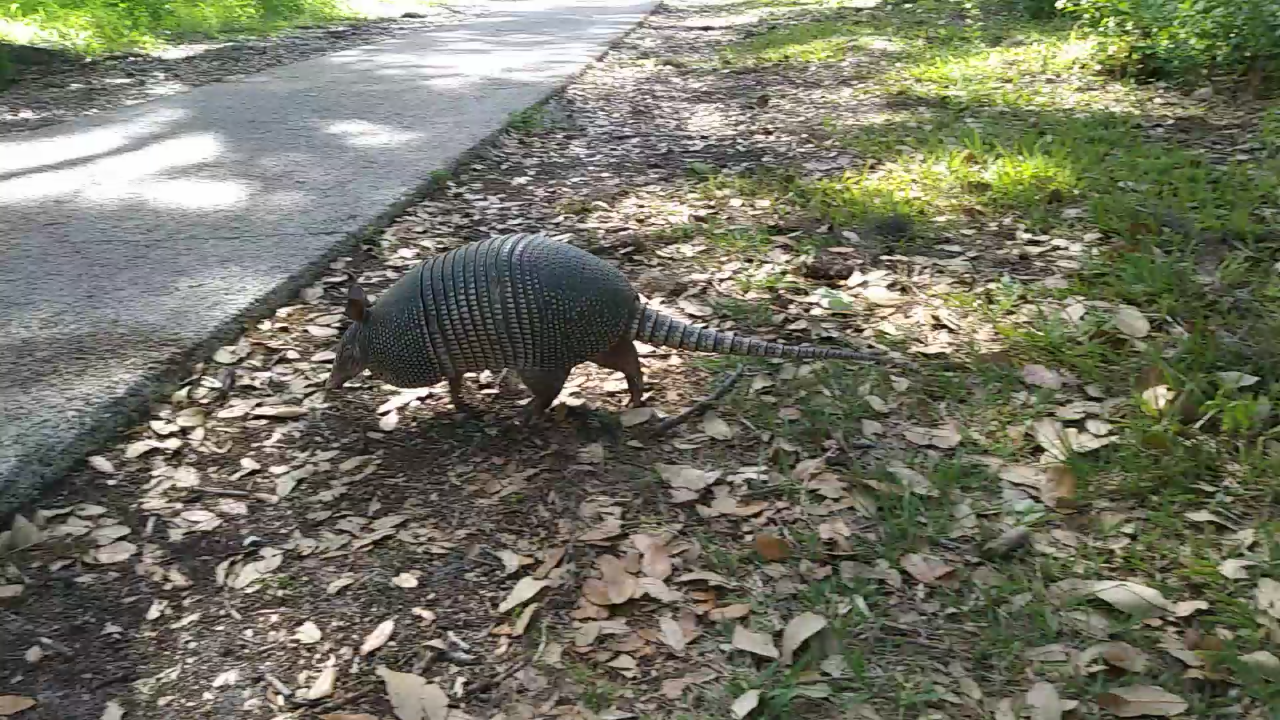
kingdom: Animalia
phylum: Chordata
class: Mammalia
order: Cingulata
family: Dasypodidae
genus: Dasypus
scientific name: Dasypus novemcinctus
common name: Nine-banded armadillo
